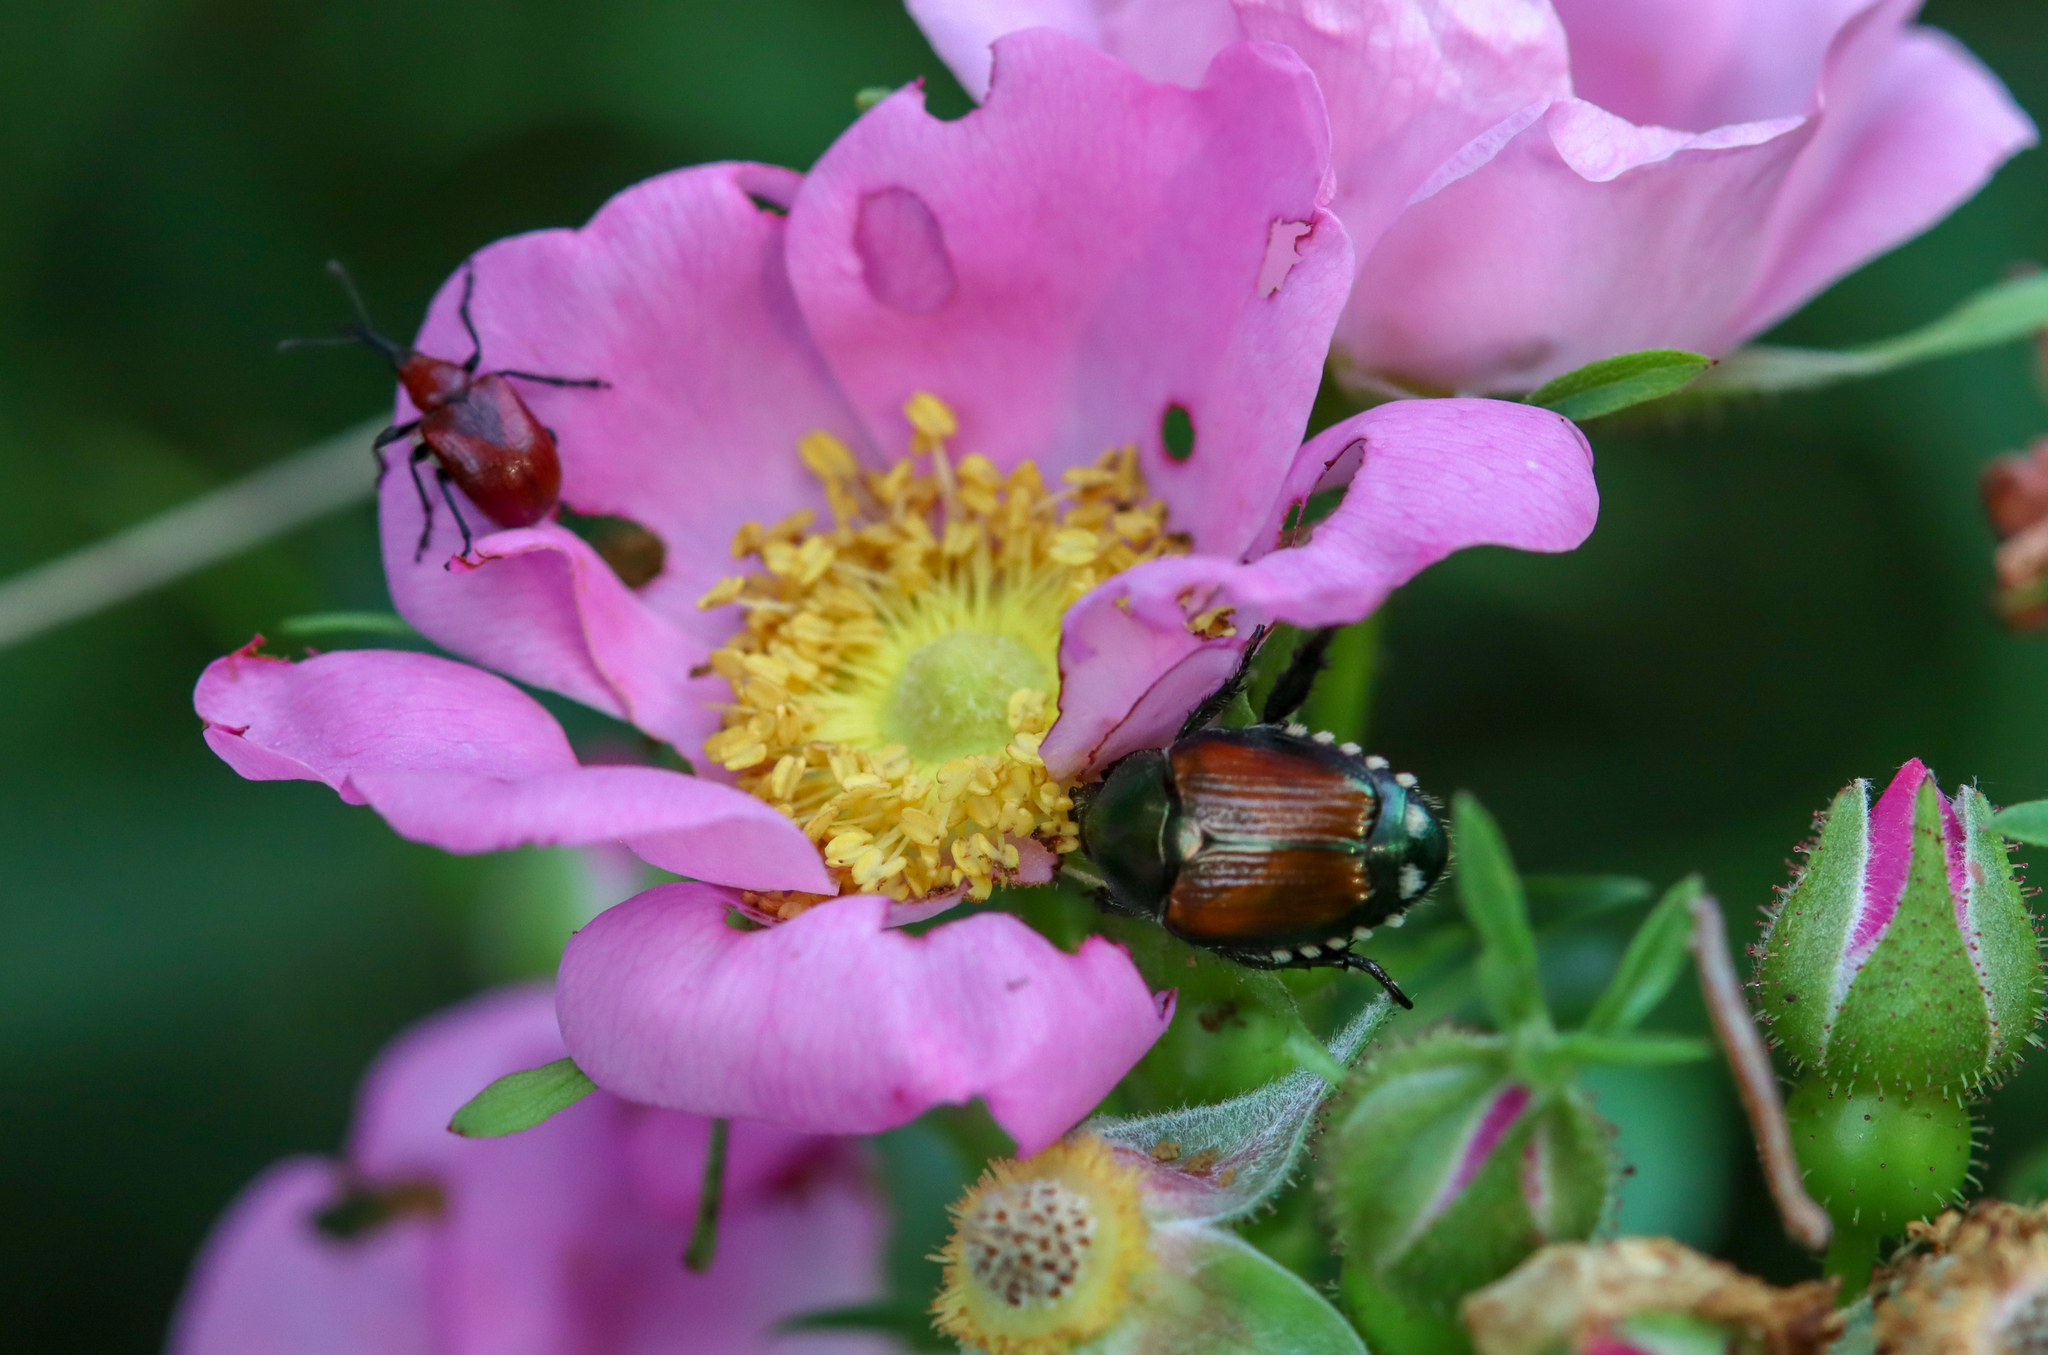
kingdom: Animalia
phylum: Arthropoda
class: Insecta
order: Coleoptera
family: Scarabaeidae
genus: Popillia
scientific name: Popillia japonica
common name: Japanese beetle
